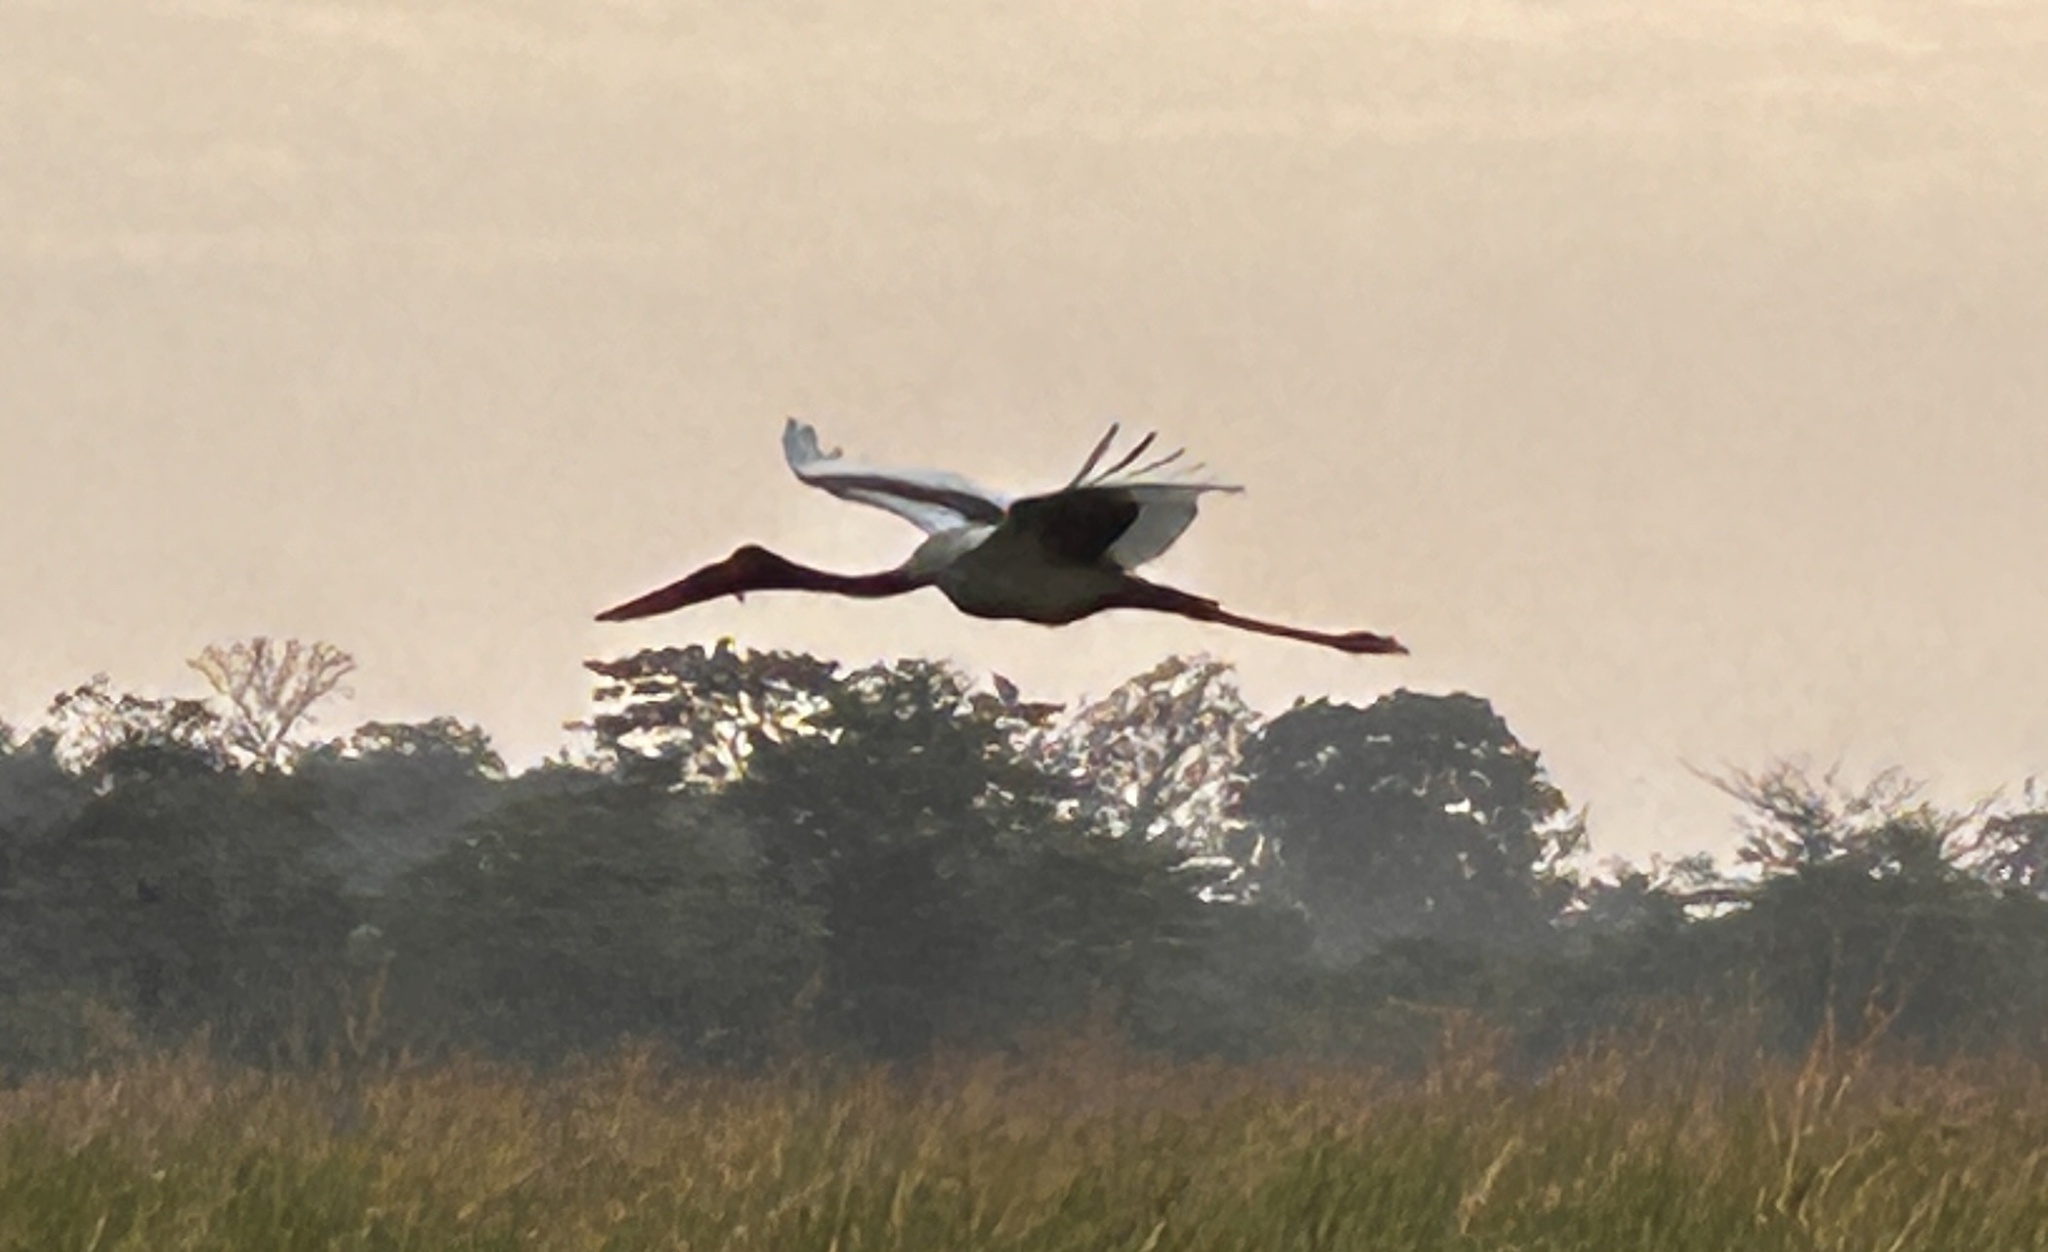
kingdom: Animalia
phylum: Chordata
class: Aves
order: Ciconiiformes
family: Ciconiidae
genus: Ephippiorhynchus
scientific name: Ephippiorhynchus senegalensis
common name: Saddle-billed stork
